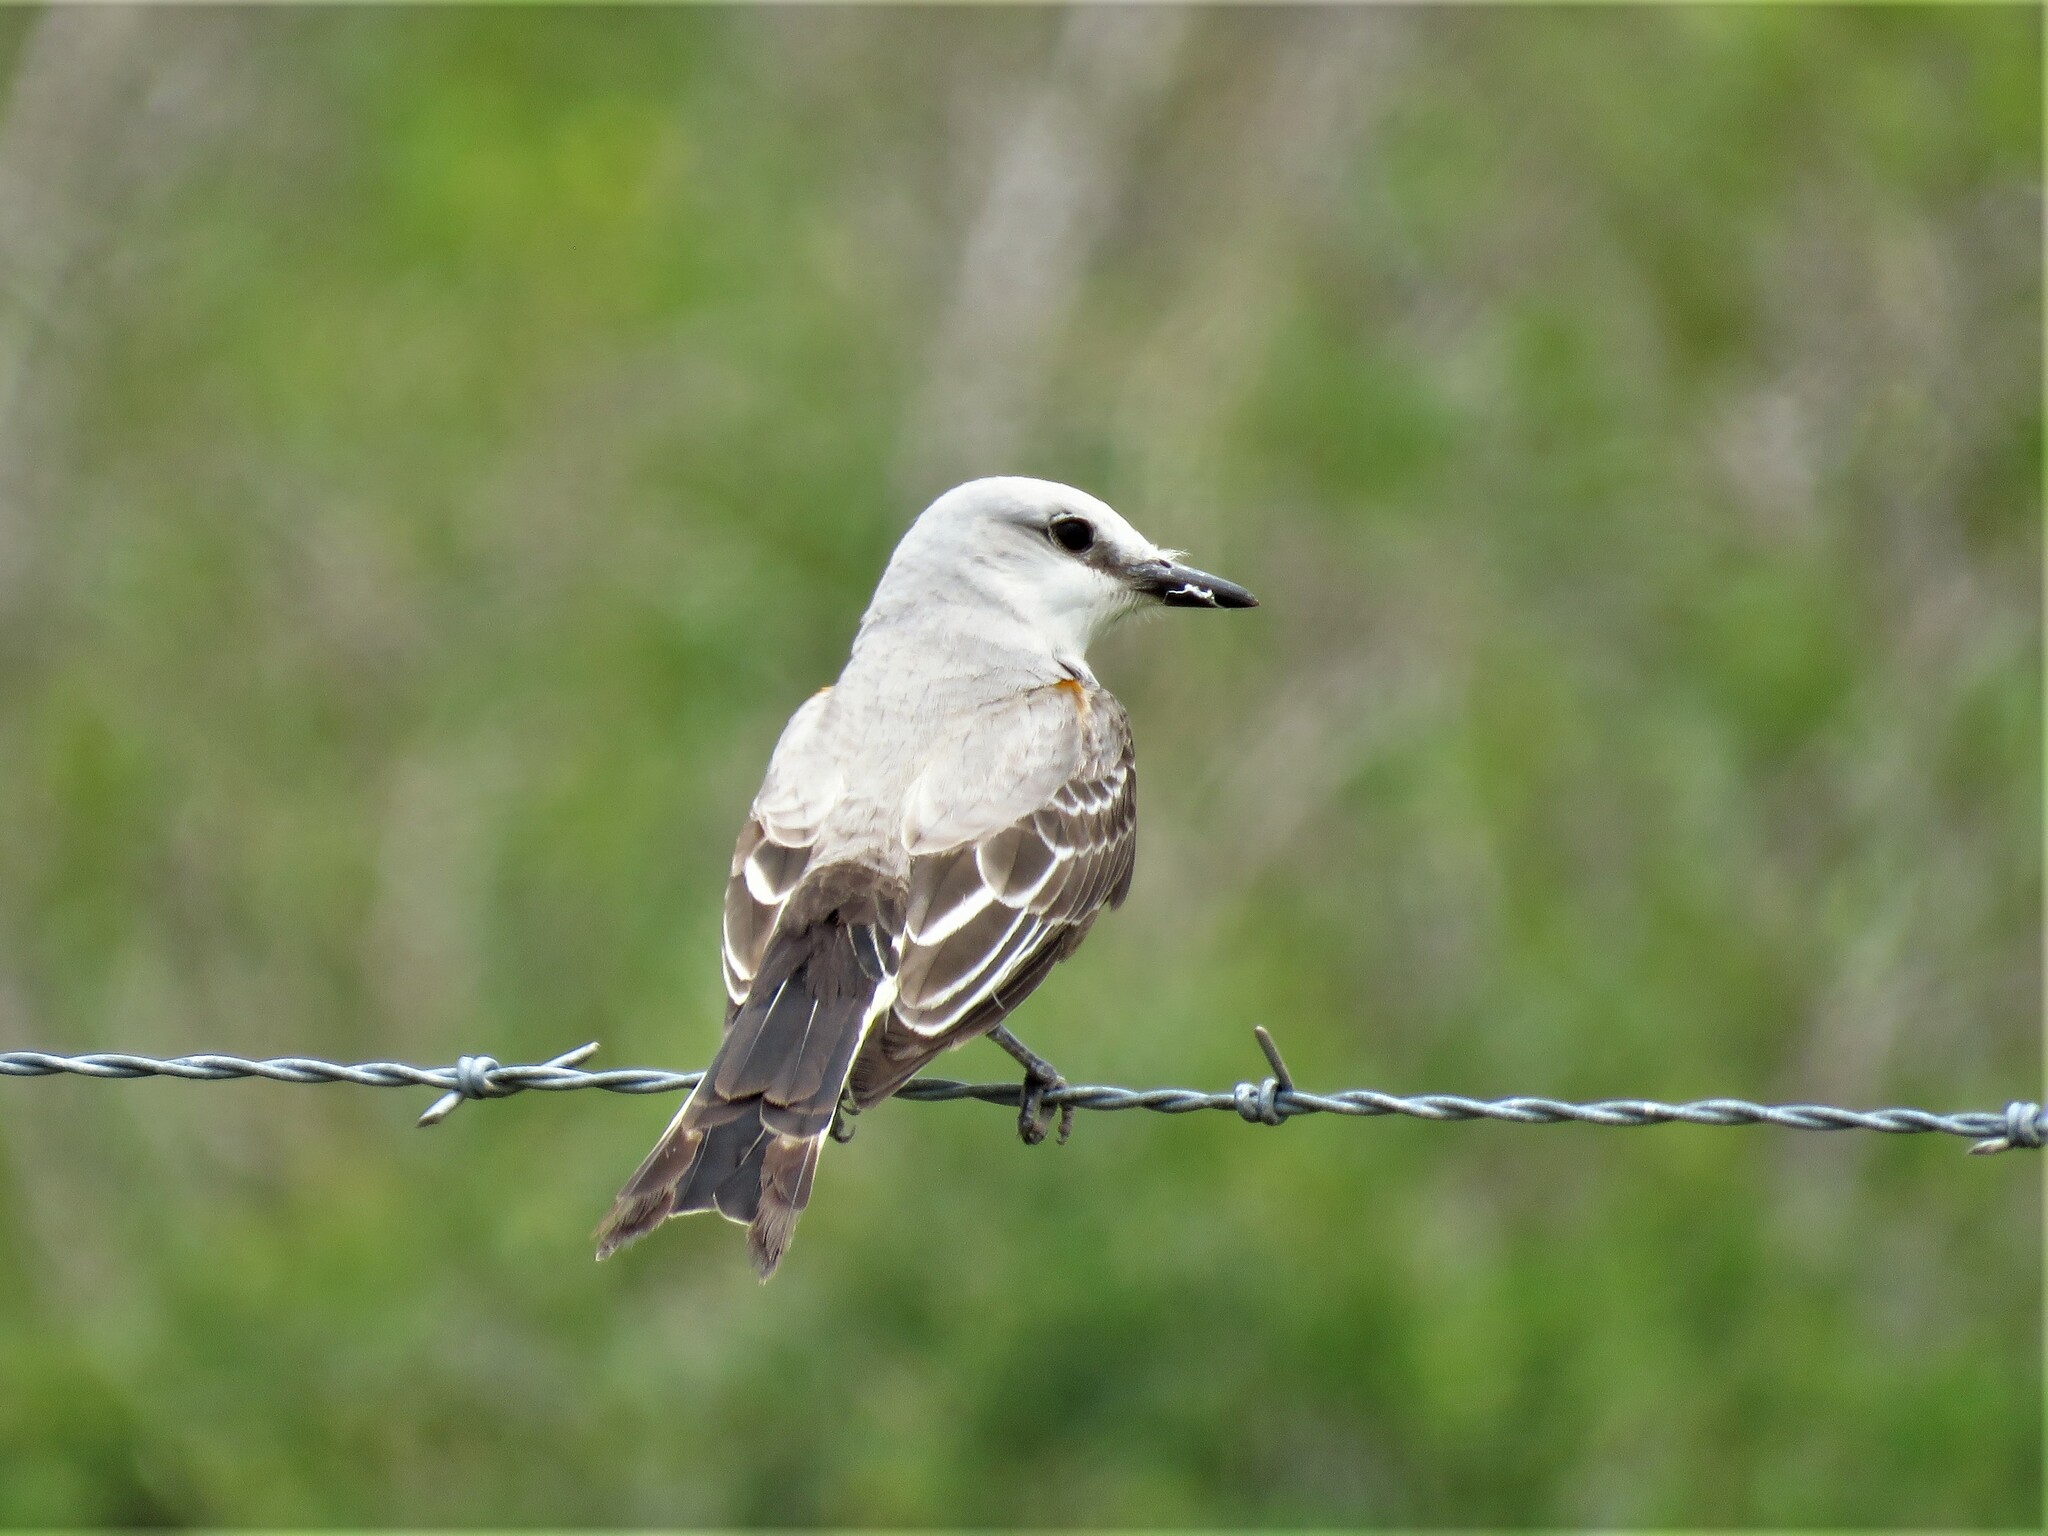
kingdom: Animalia
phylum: Chordata
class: Aves
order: Passeriformes
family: Tyrannidae
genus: Tyrannus
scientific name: Tyrannus forficatus
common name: Scissor-tailed flycatcher
